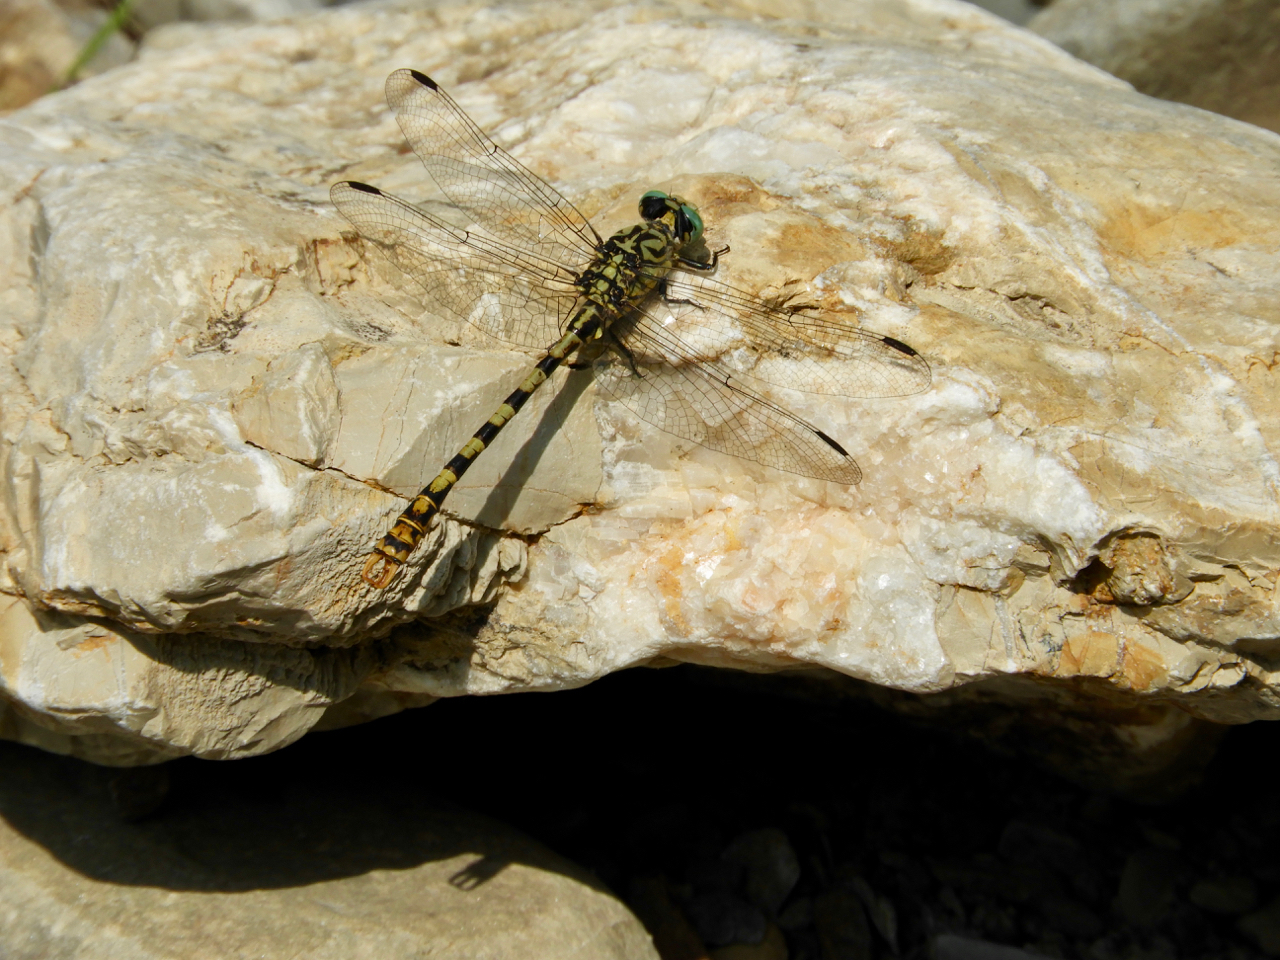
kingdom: Animalia
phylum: Arthropoda
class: Insecta
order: Odonata
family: Gomphidae
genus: Onychogomphus
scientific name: Onychogomphus forcipatus
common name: Small pincertail
